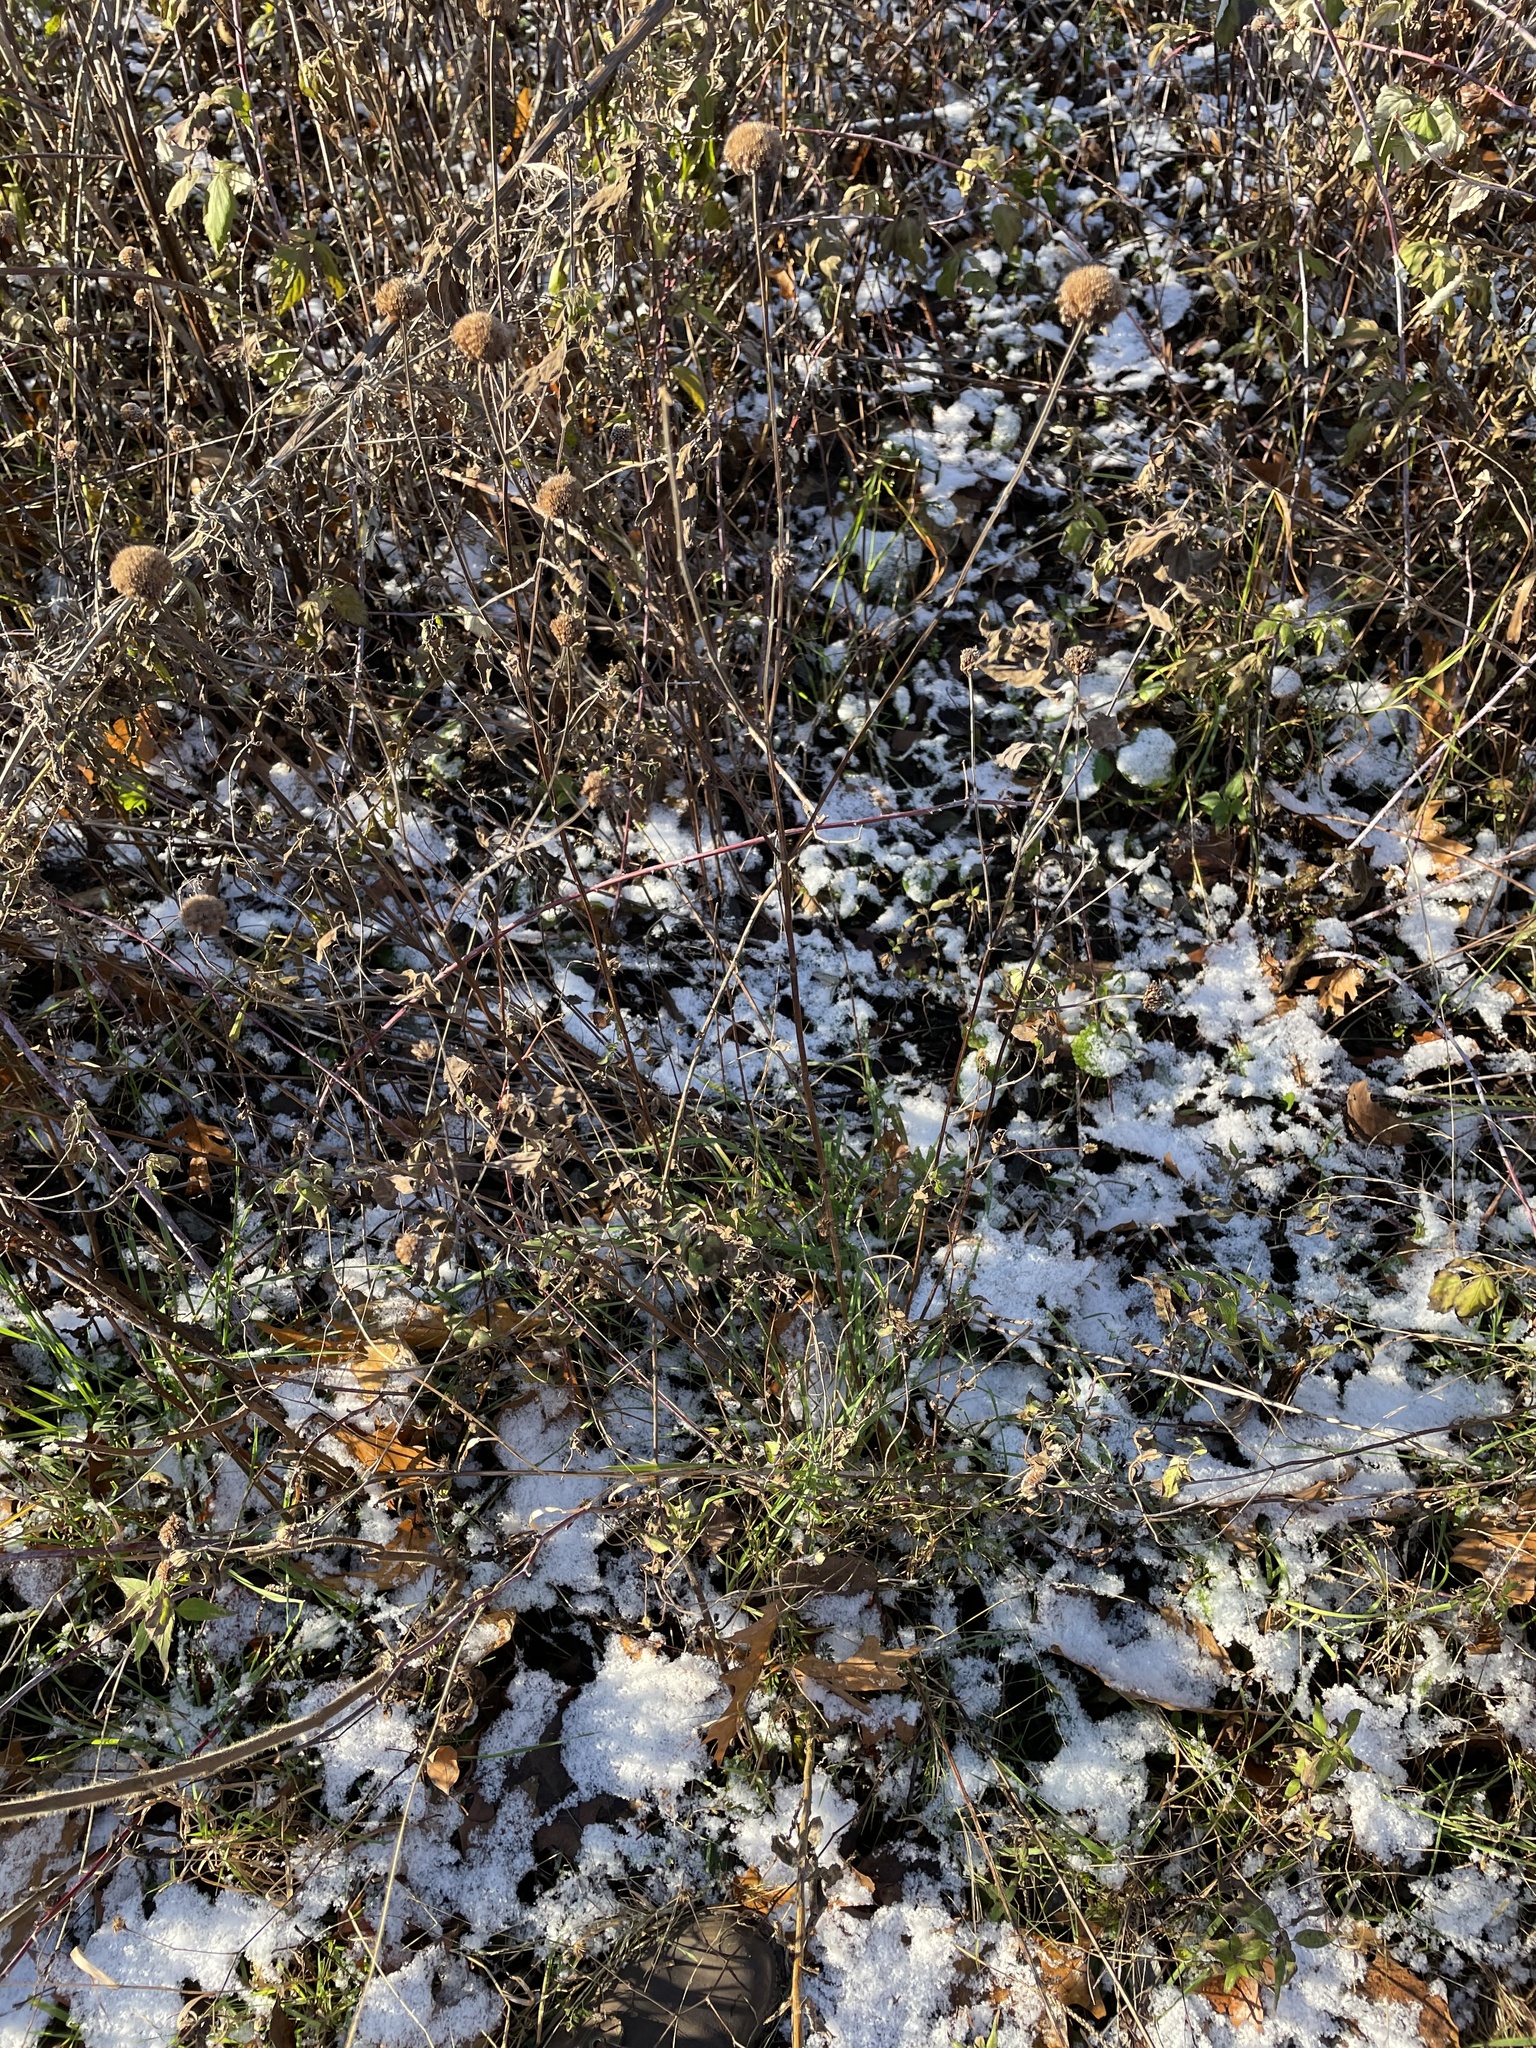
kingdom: Plantae
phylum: Tracheophyta
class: Magnoliopsida
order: Lamiales
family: Lamiaceae
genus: Monarda
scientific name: Monarda fistulosa
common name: Purple beebalm
